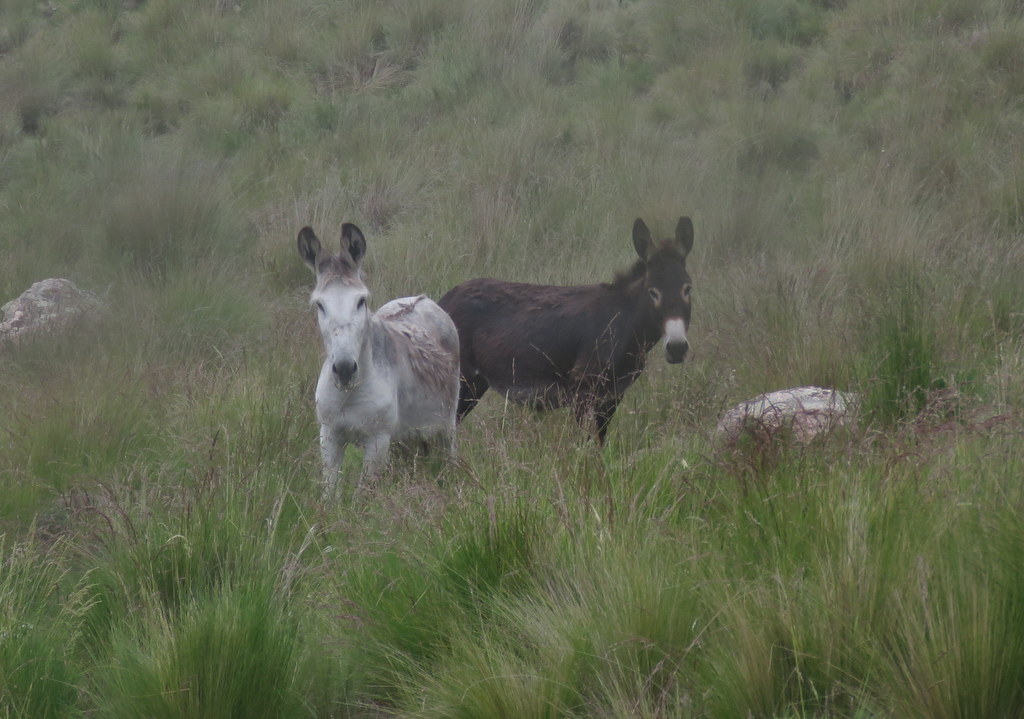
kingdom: Animalia
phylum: Chordata
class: Mammalia
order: Perissodactyla
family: Equidae
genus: Equus
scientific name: Equus asinus
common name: Ass
